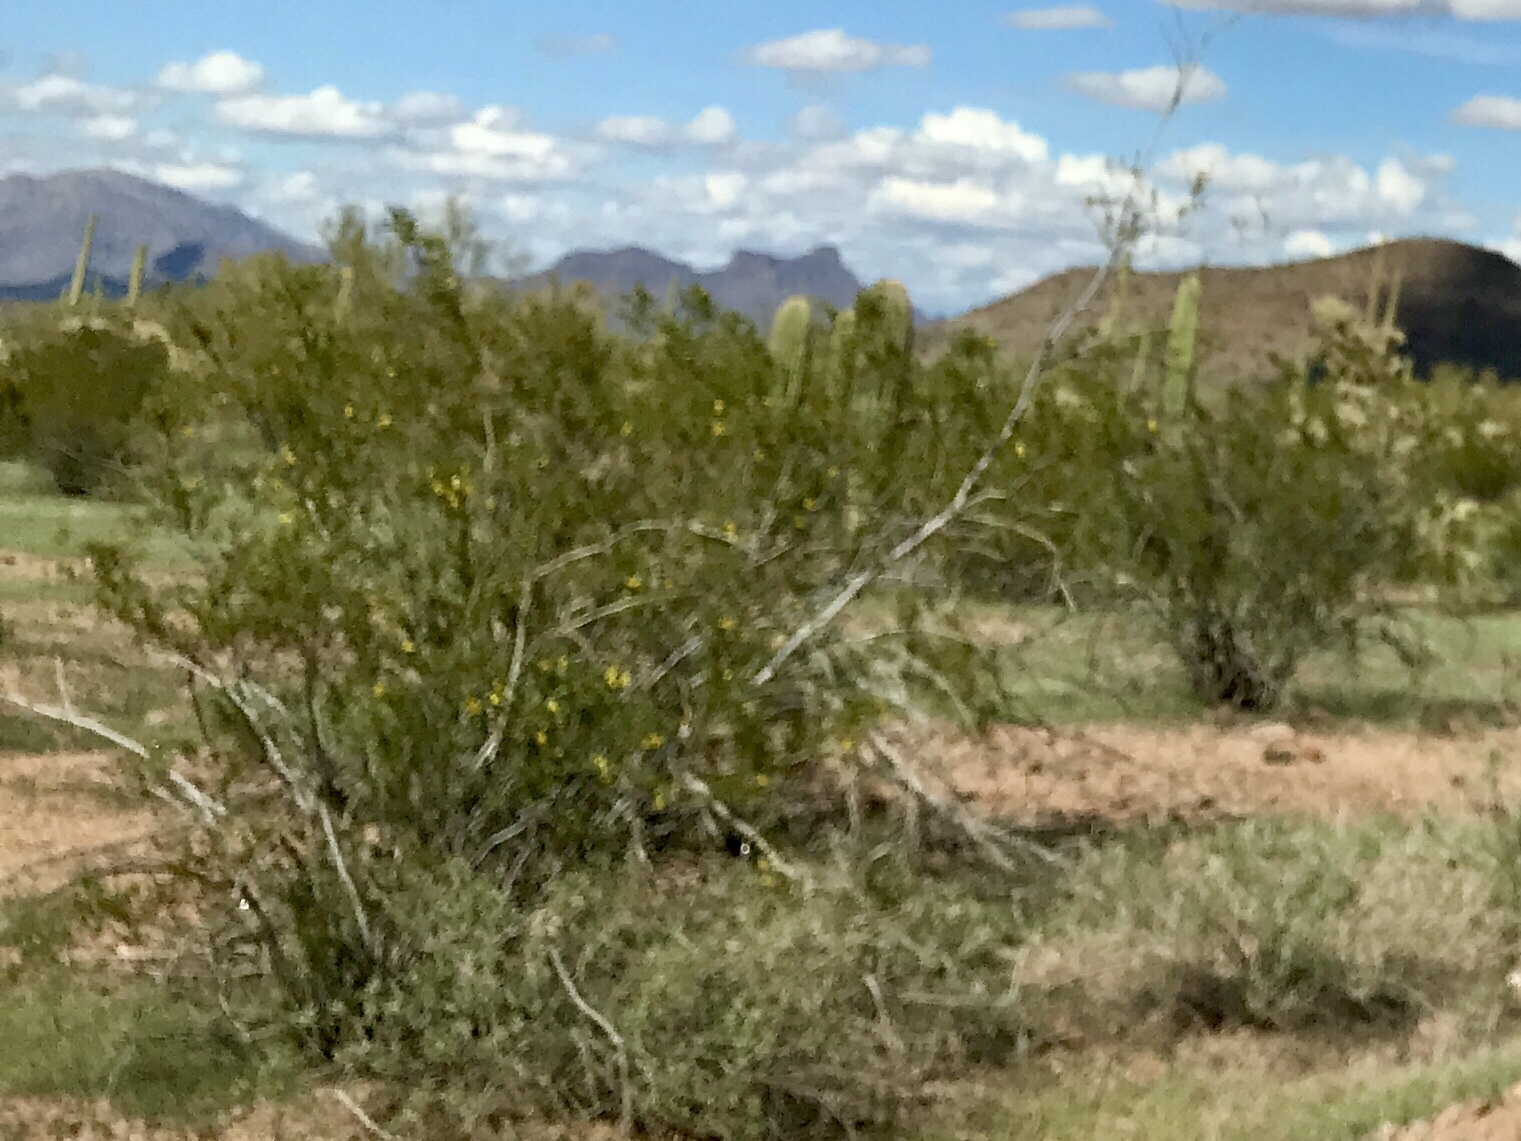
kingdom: Plantae
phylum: Tracheophyta
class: Magnoliopsida
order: Zygophyllales
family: Zygophyllaceae
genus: Larrea
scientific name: Larrea tridentata
